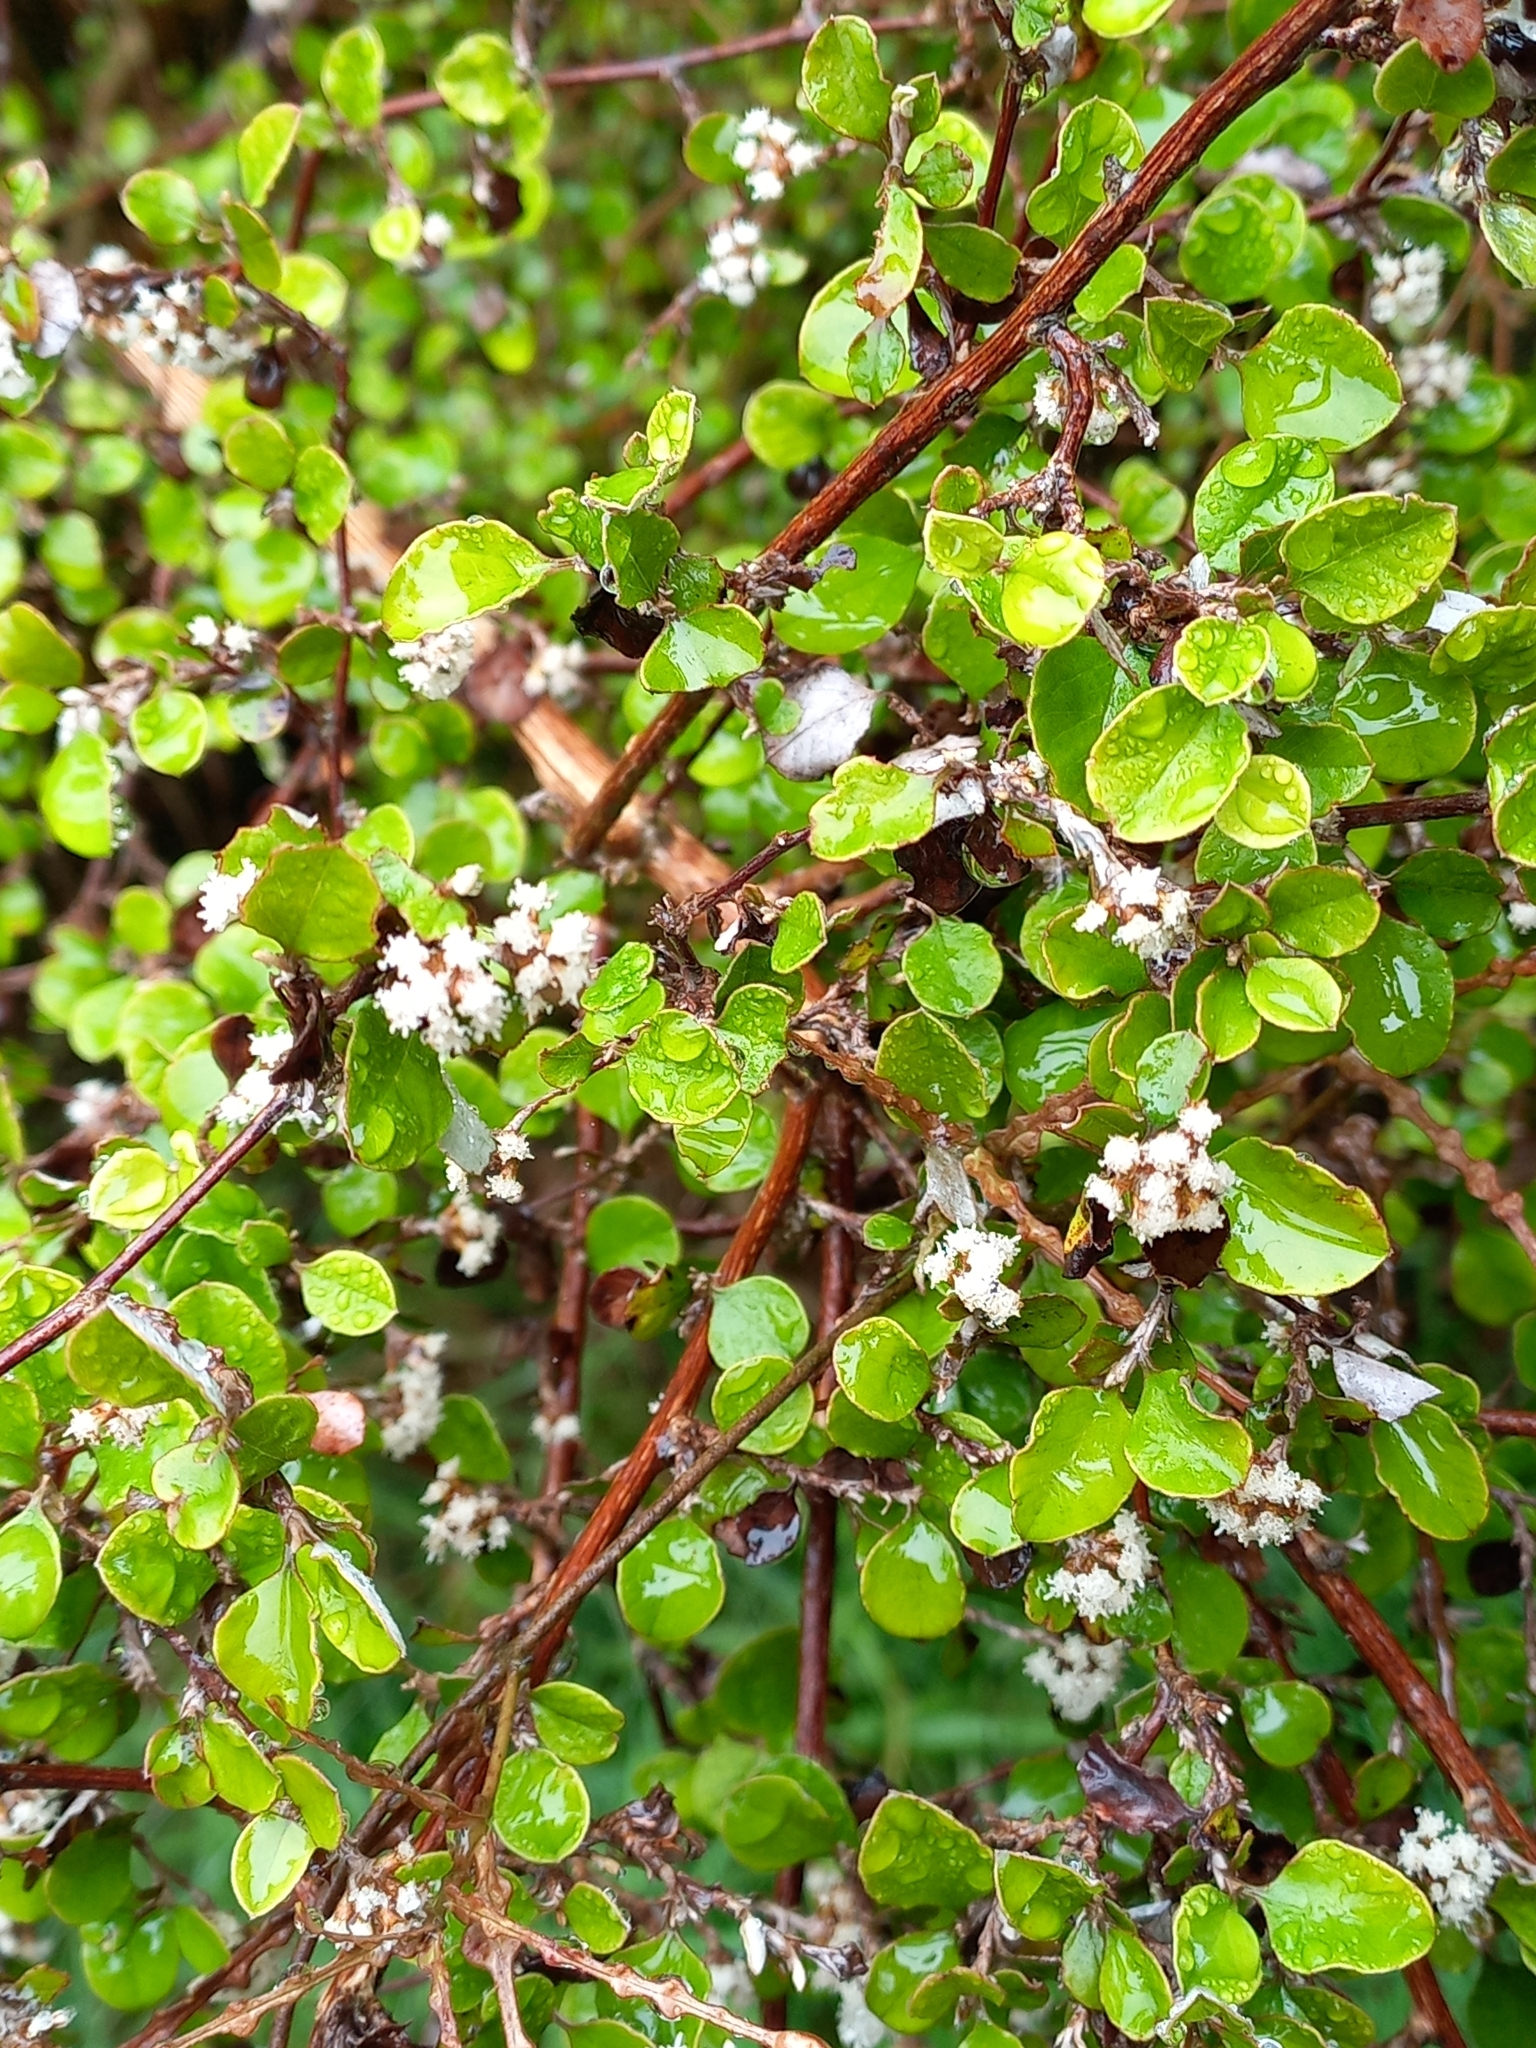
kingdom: Plantae
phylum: Tracheophyta
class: Magnoliopsida
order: Asterales
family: Asteraceae
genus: Ozothamnus
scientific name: Ozothamnus glomeratus
